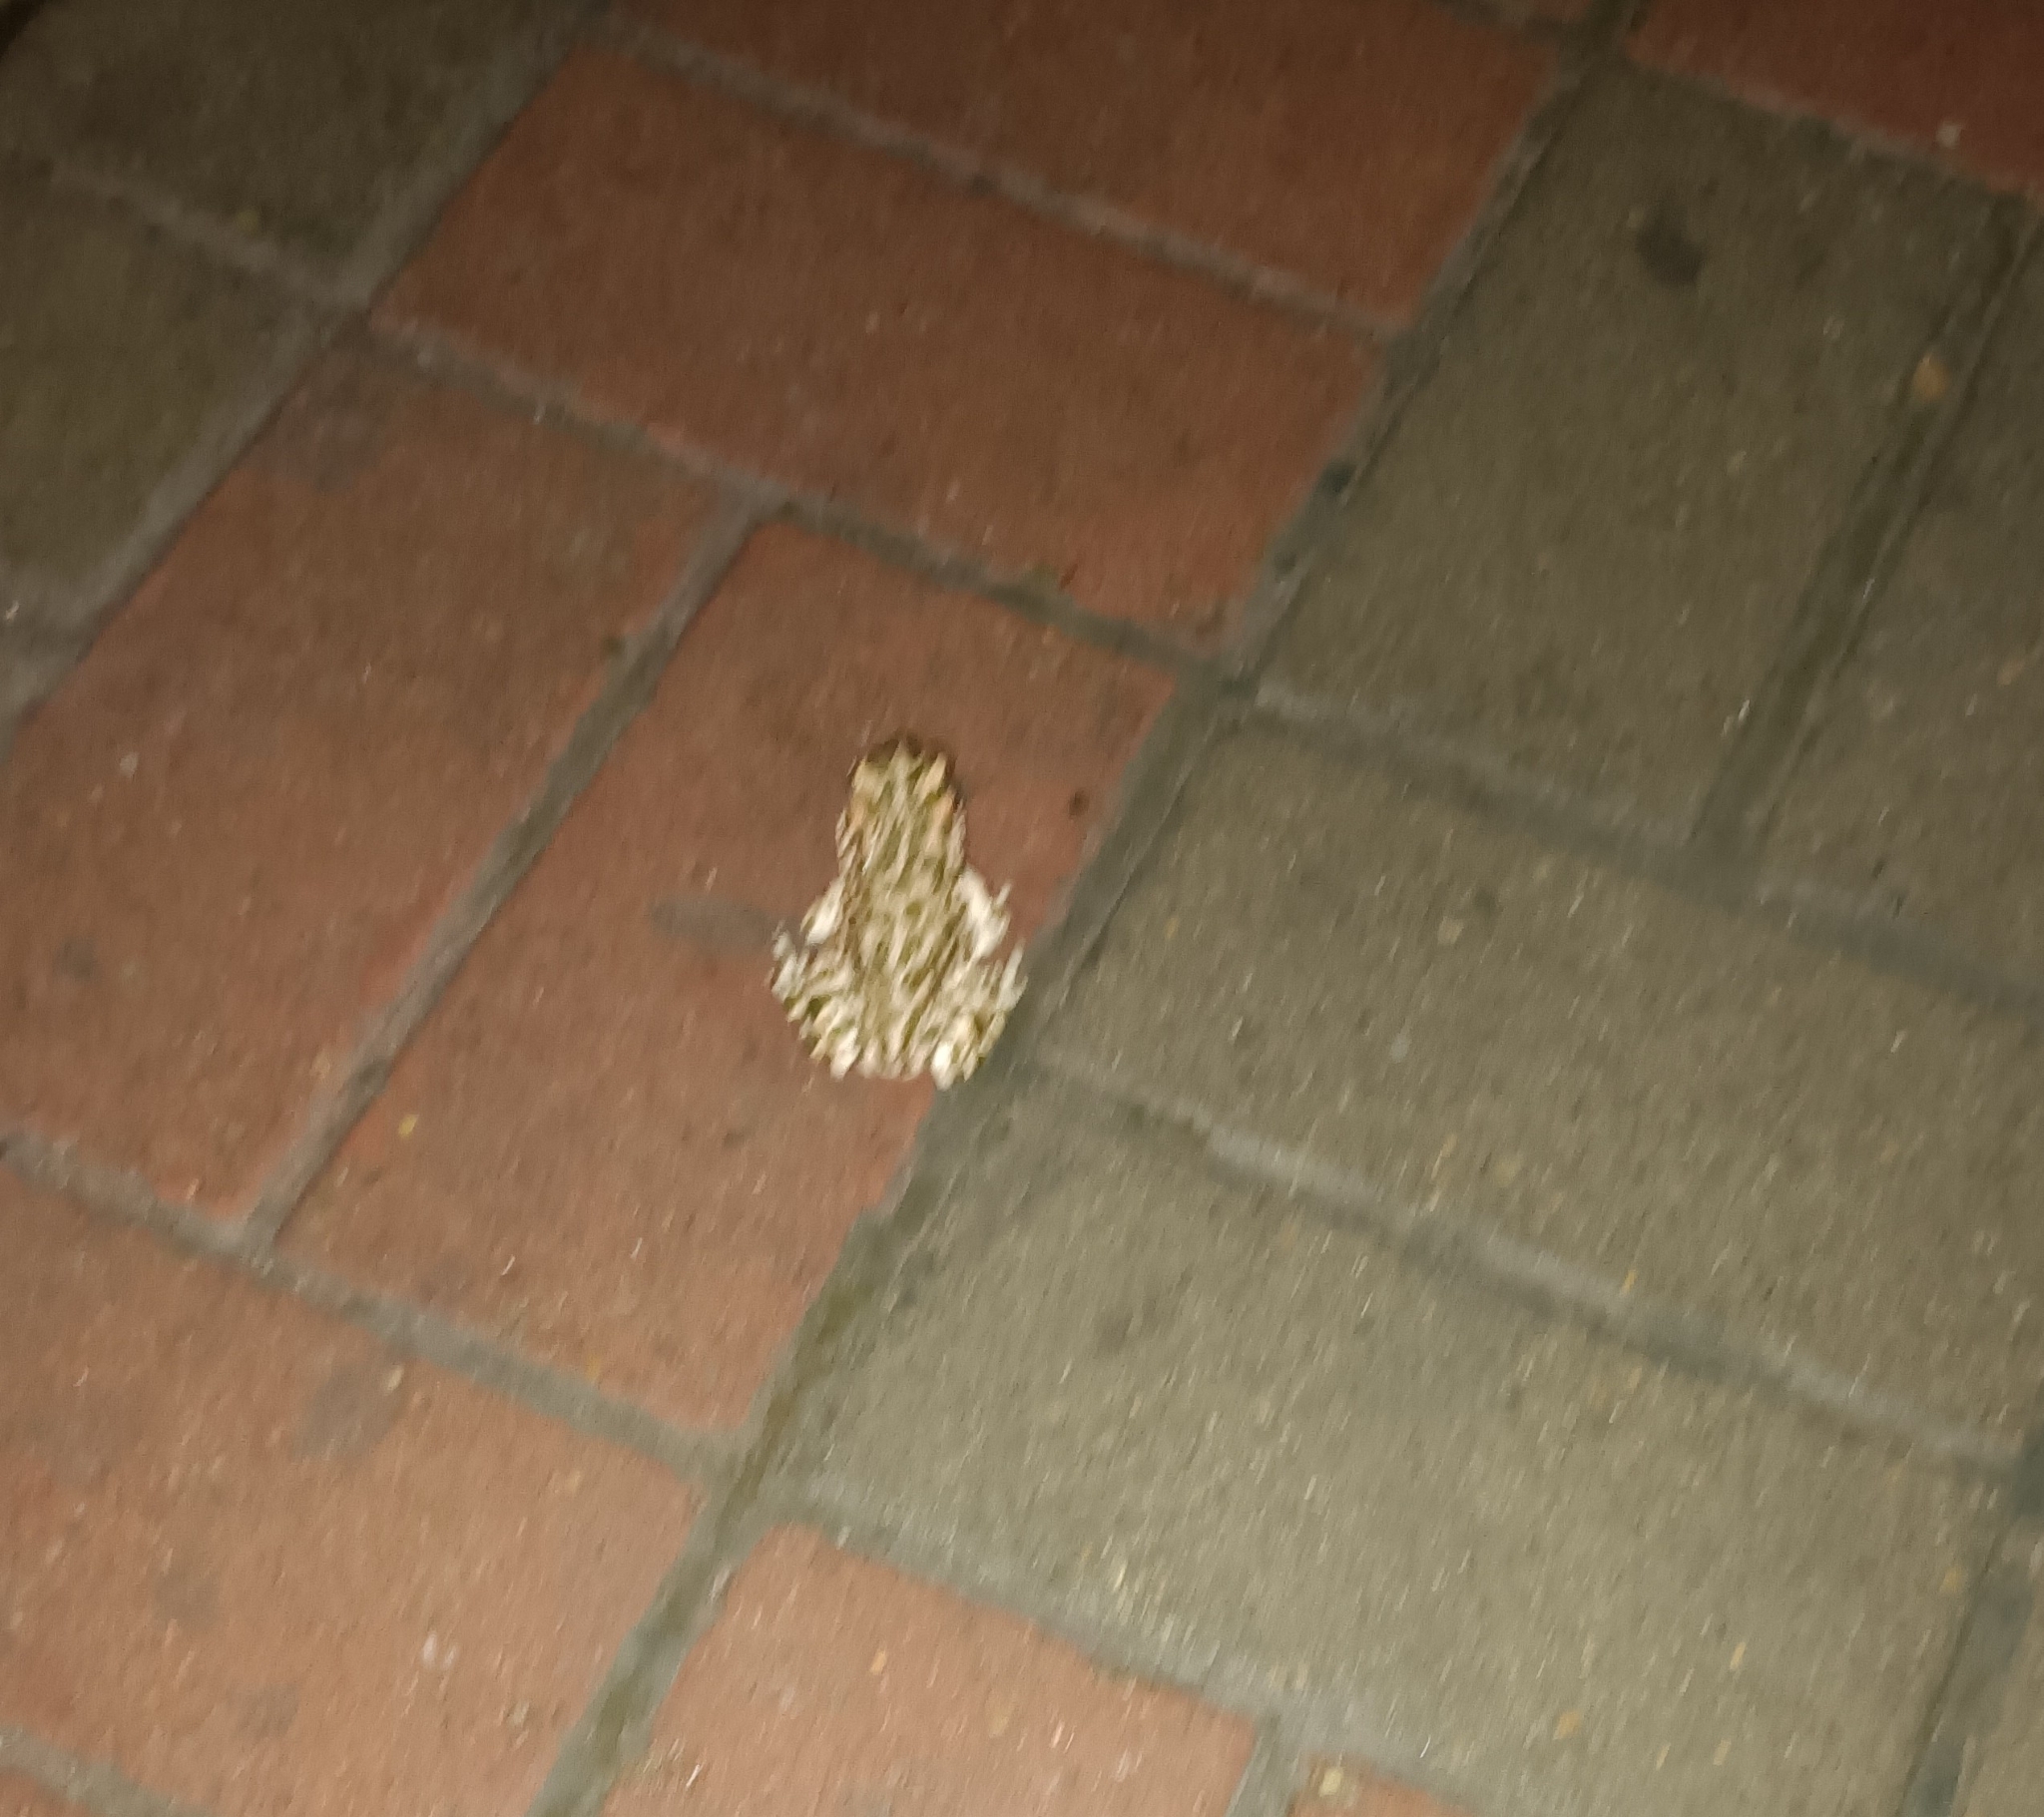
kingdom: Animalia
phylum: Chordata
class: Amphibia
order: Anura
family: Bufonidae
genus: Bufotes
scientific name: Bufotes viridis
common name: European green toad
